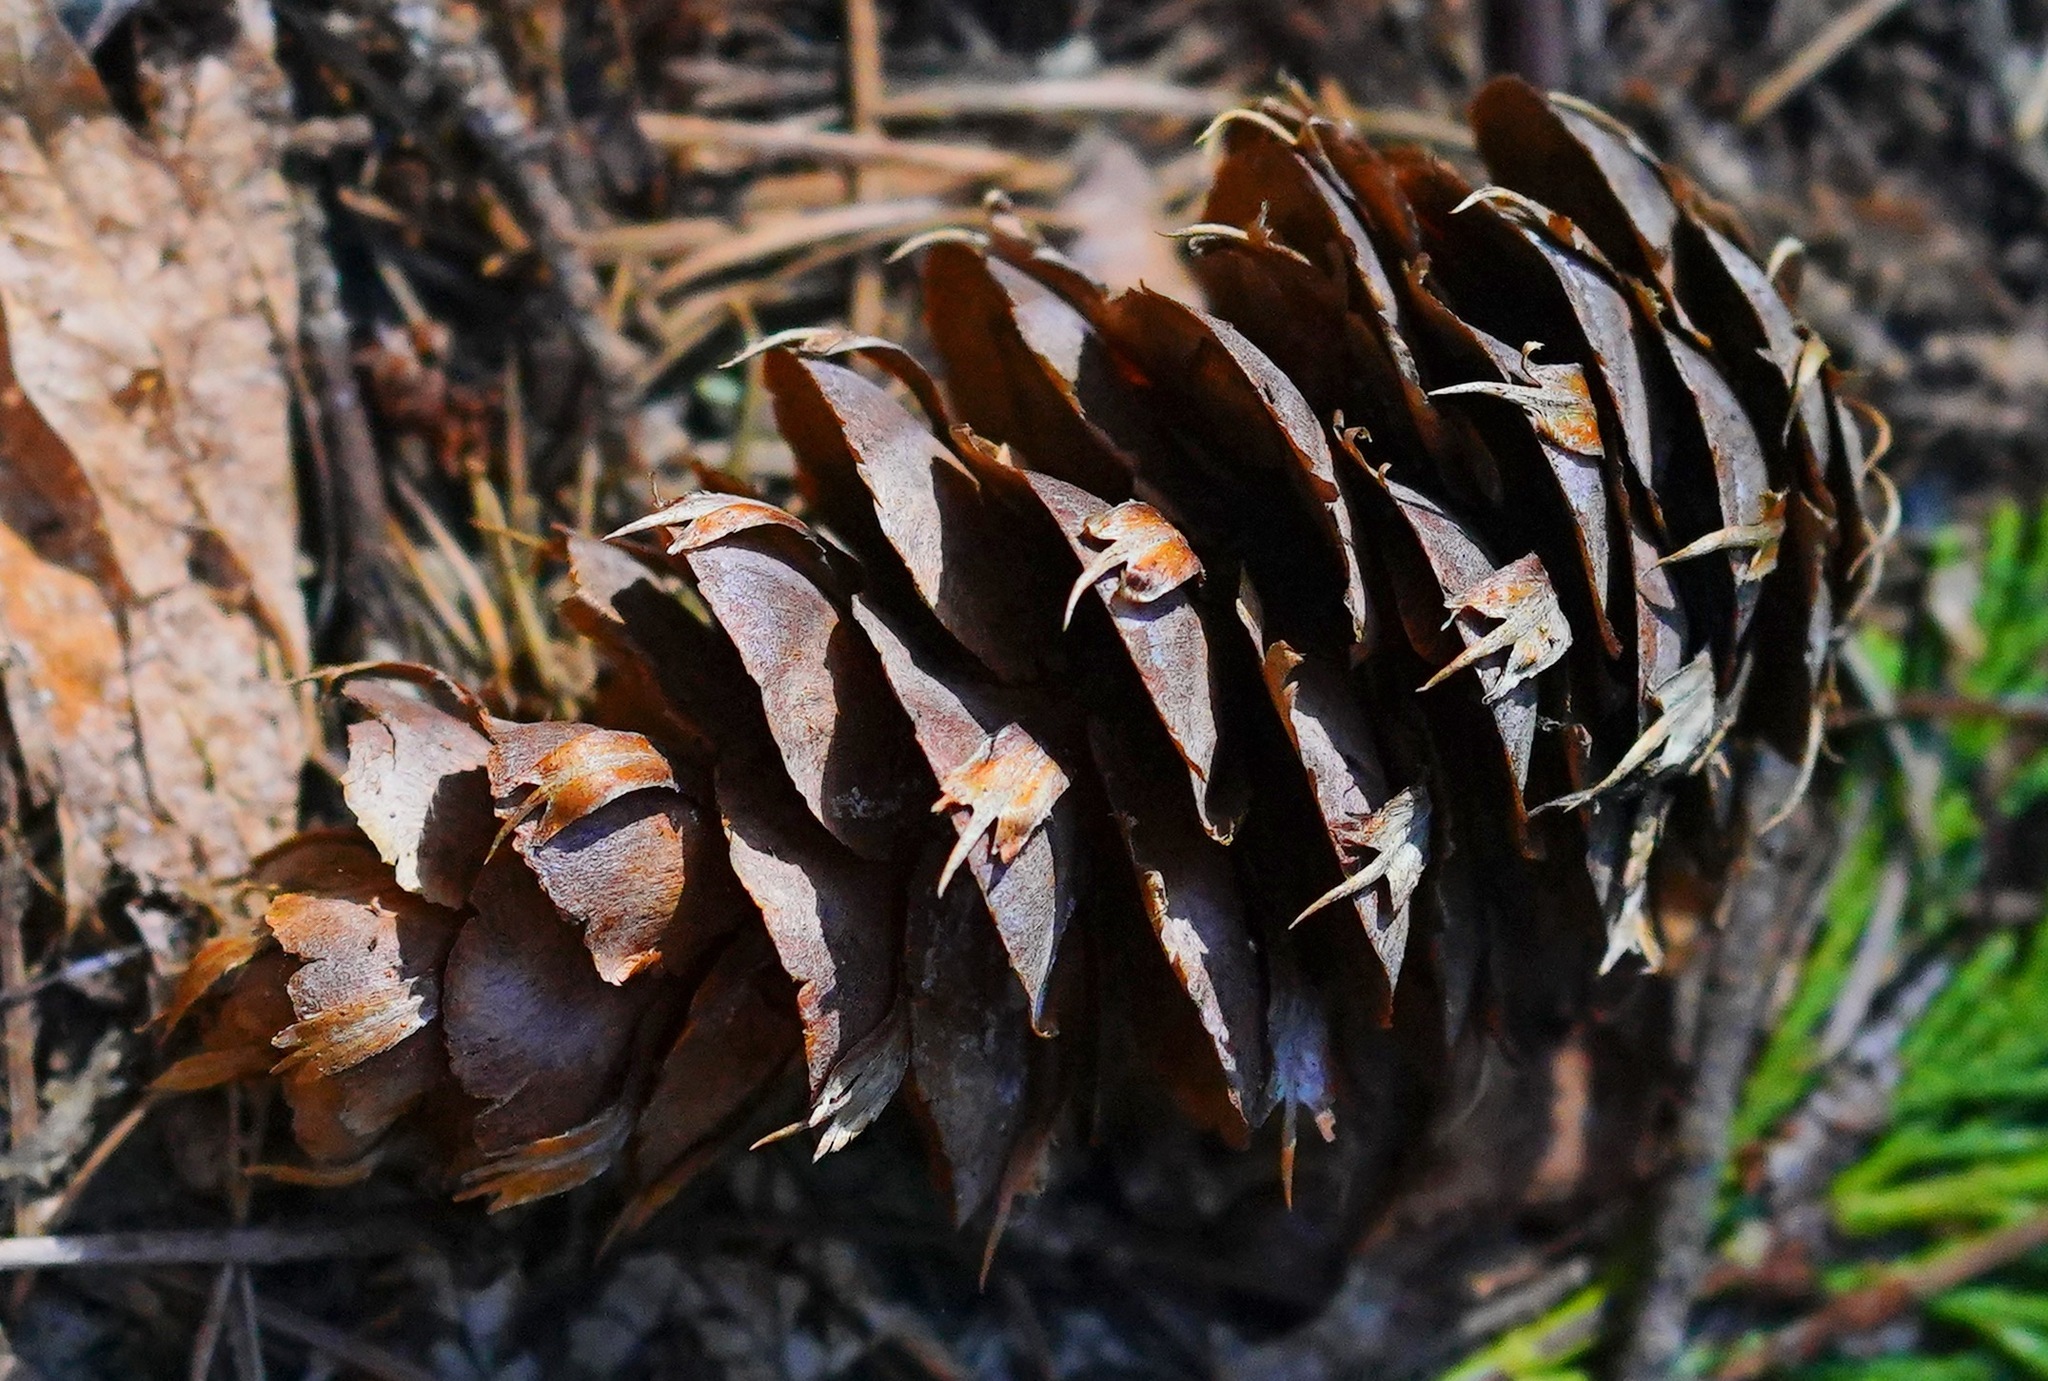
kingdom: Plantae
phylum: Tracheophyta
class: Pinopsida
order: Pinales
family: Pinaceae
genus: Pseudotsuga
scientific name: Pseudotsuga menziesii
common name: Douglas fir
